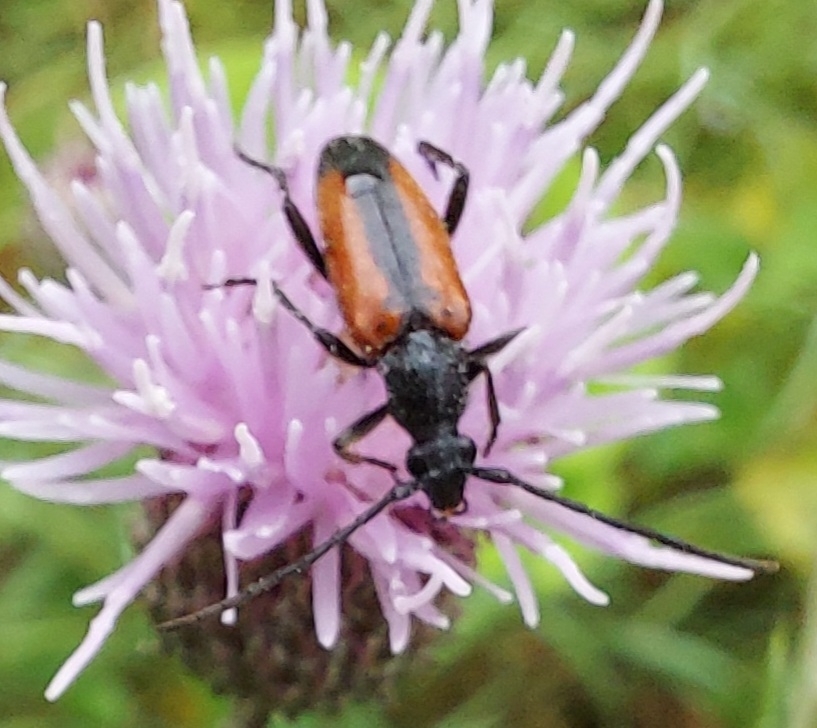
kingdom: Animalia
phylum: Arthropoda
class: Insecta
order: Coleoptera
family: Cerambycidae
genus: Stenurella
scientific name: Stenurella melanura
